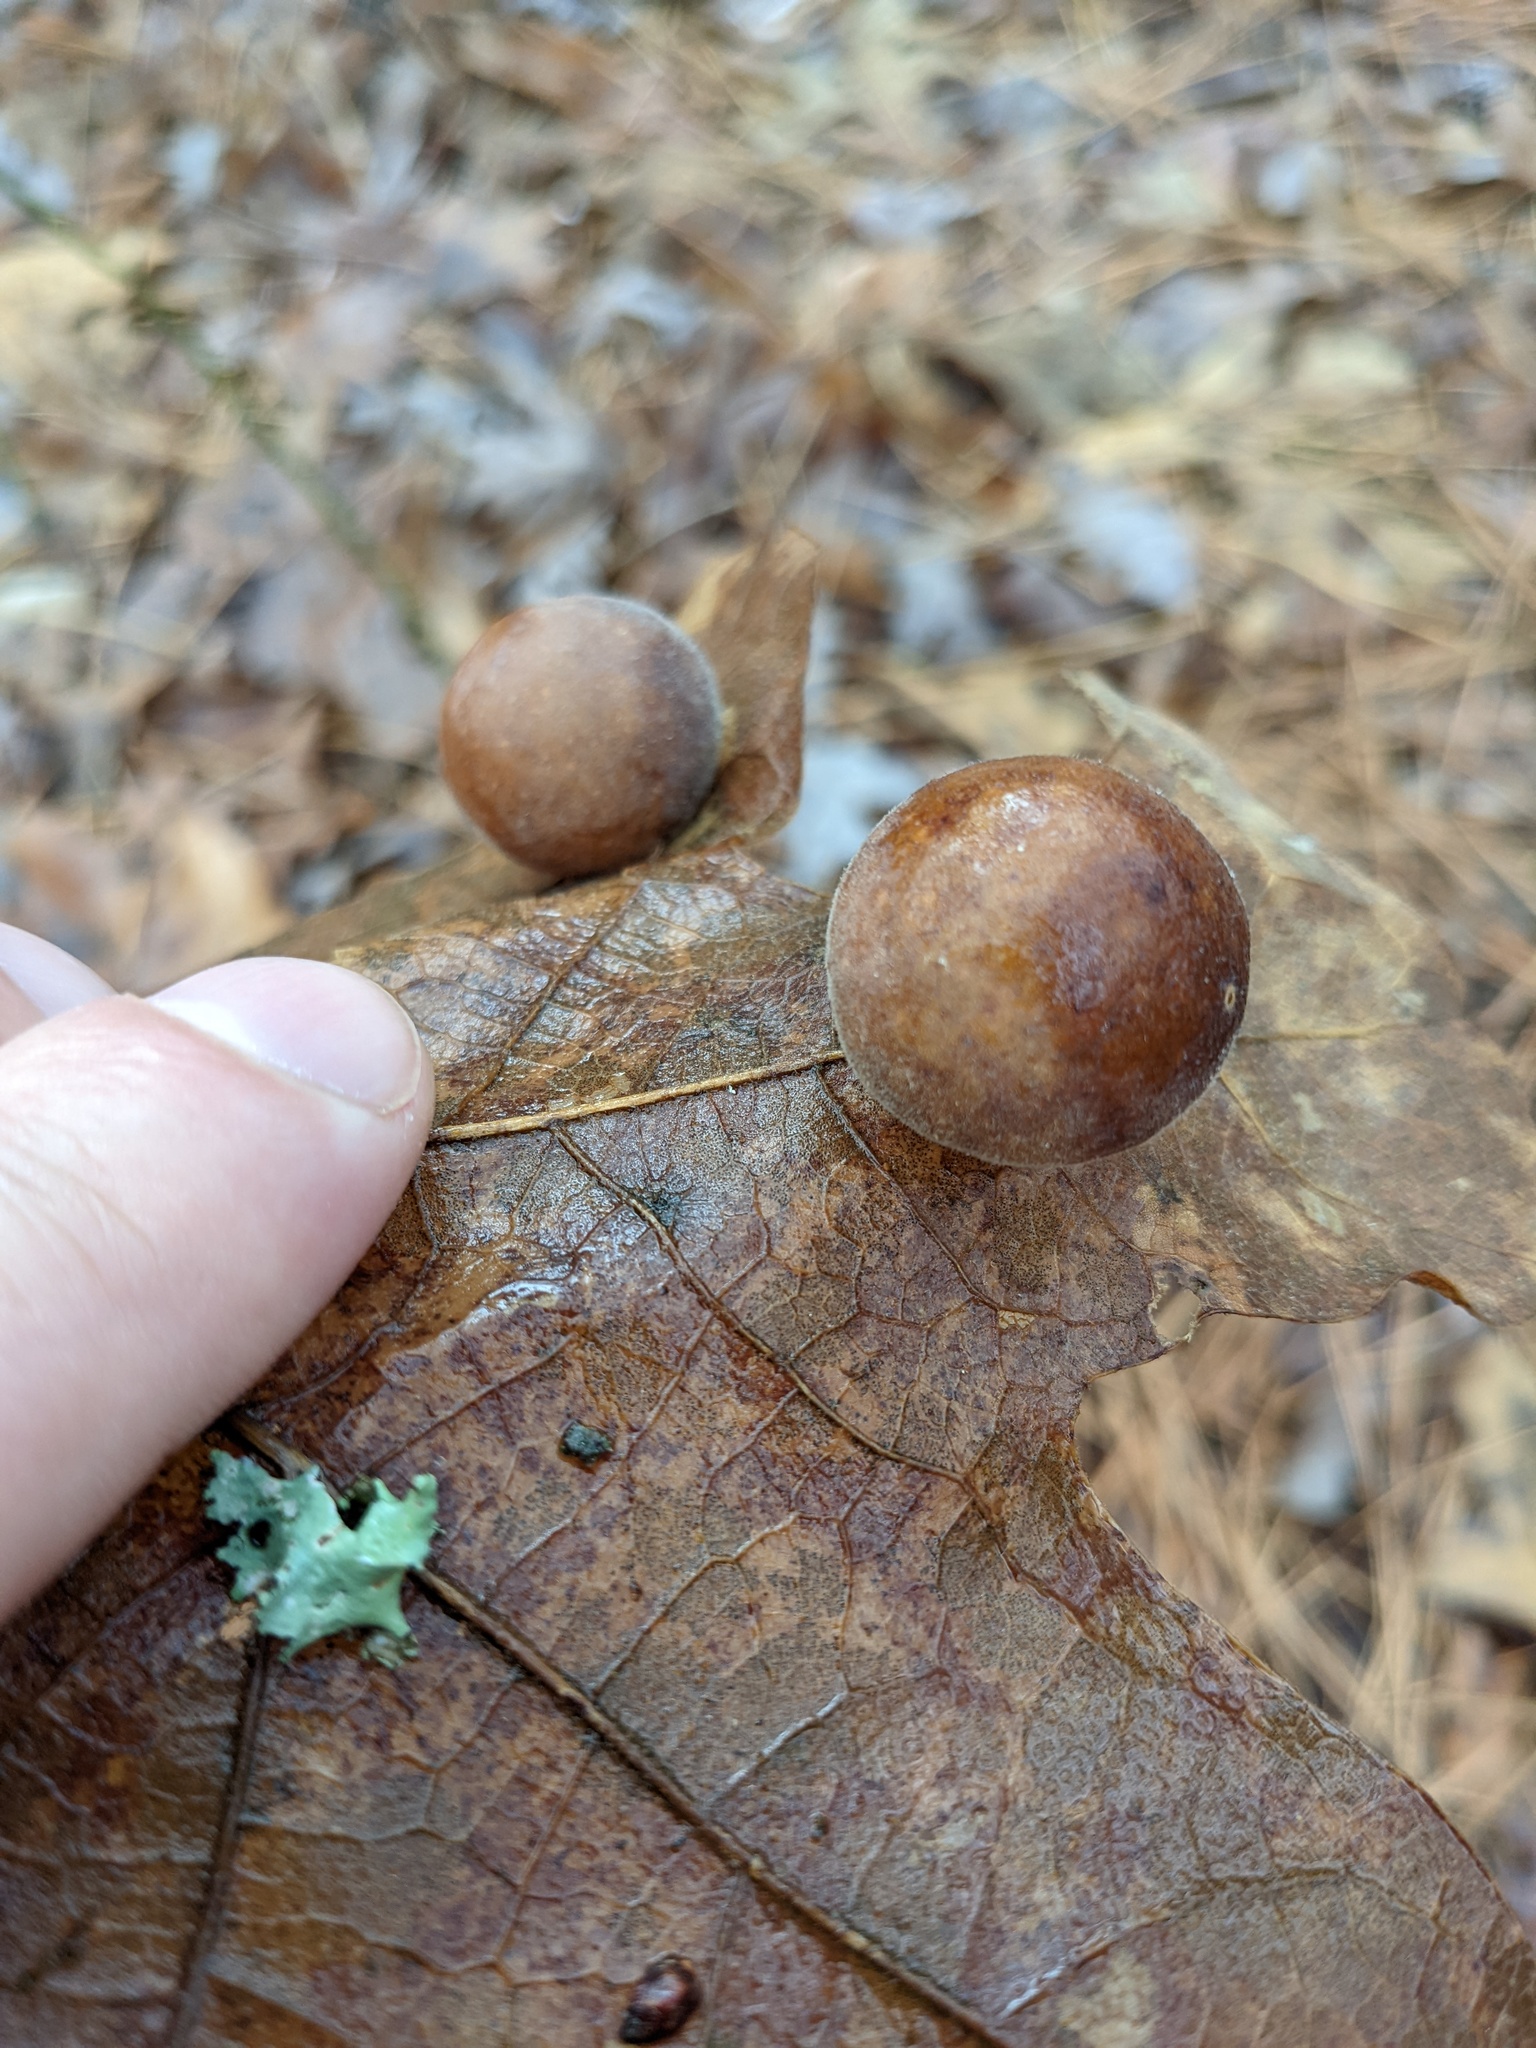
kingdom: Animalia
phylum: Arthropoda
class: Insecta
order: Hymenoptera
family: Cynipidae
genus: Atrusca
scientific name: Atrusca
